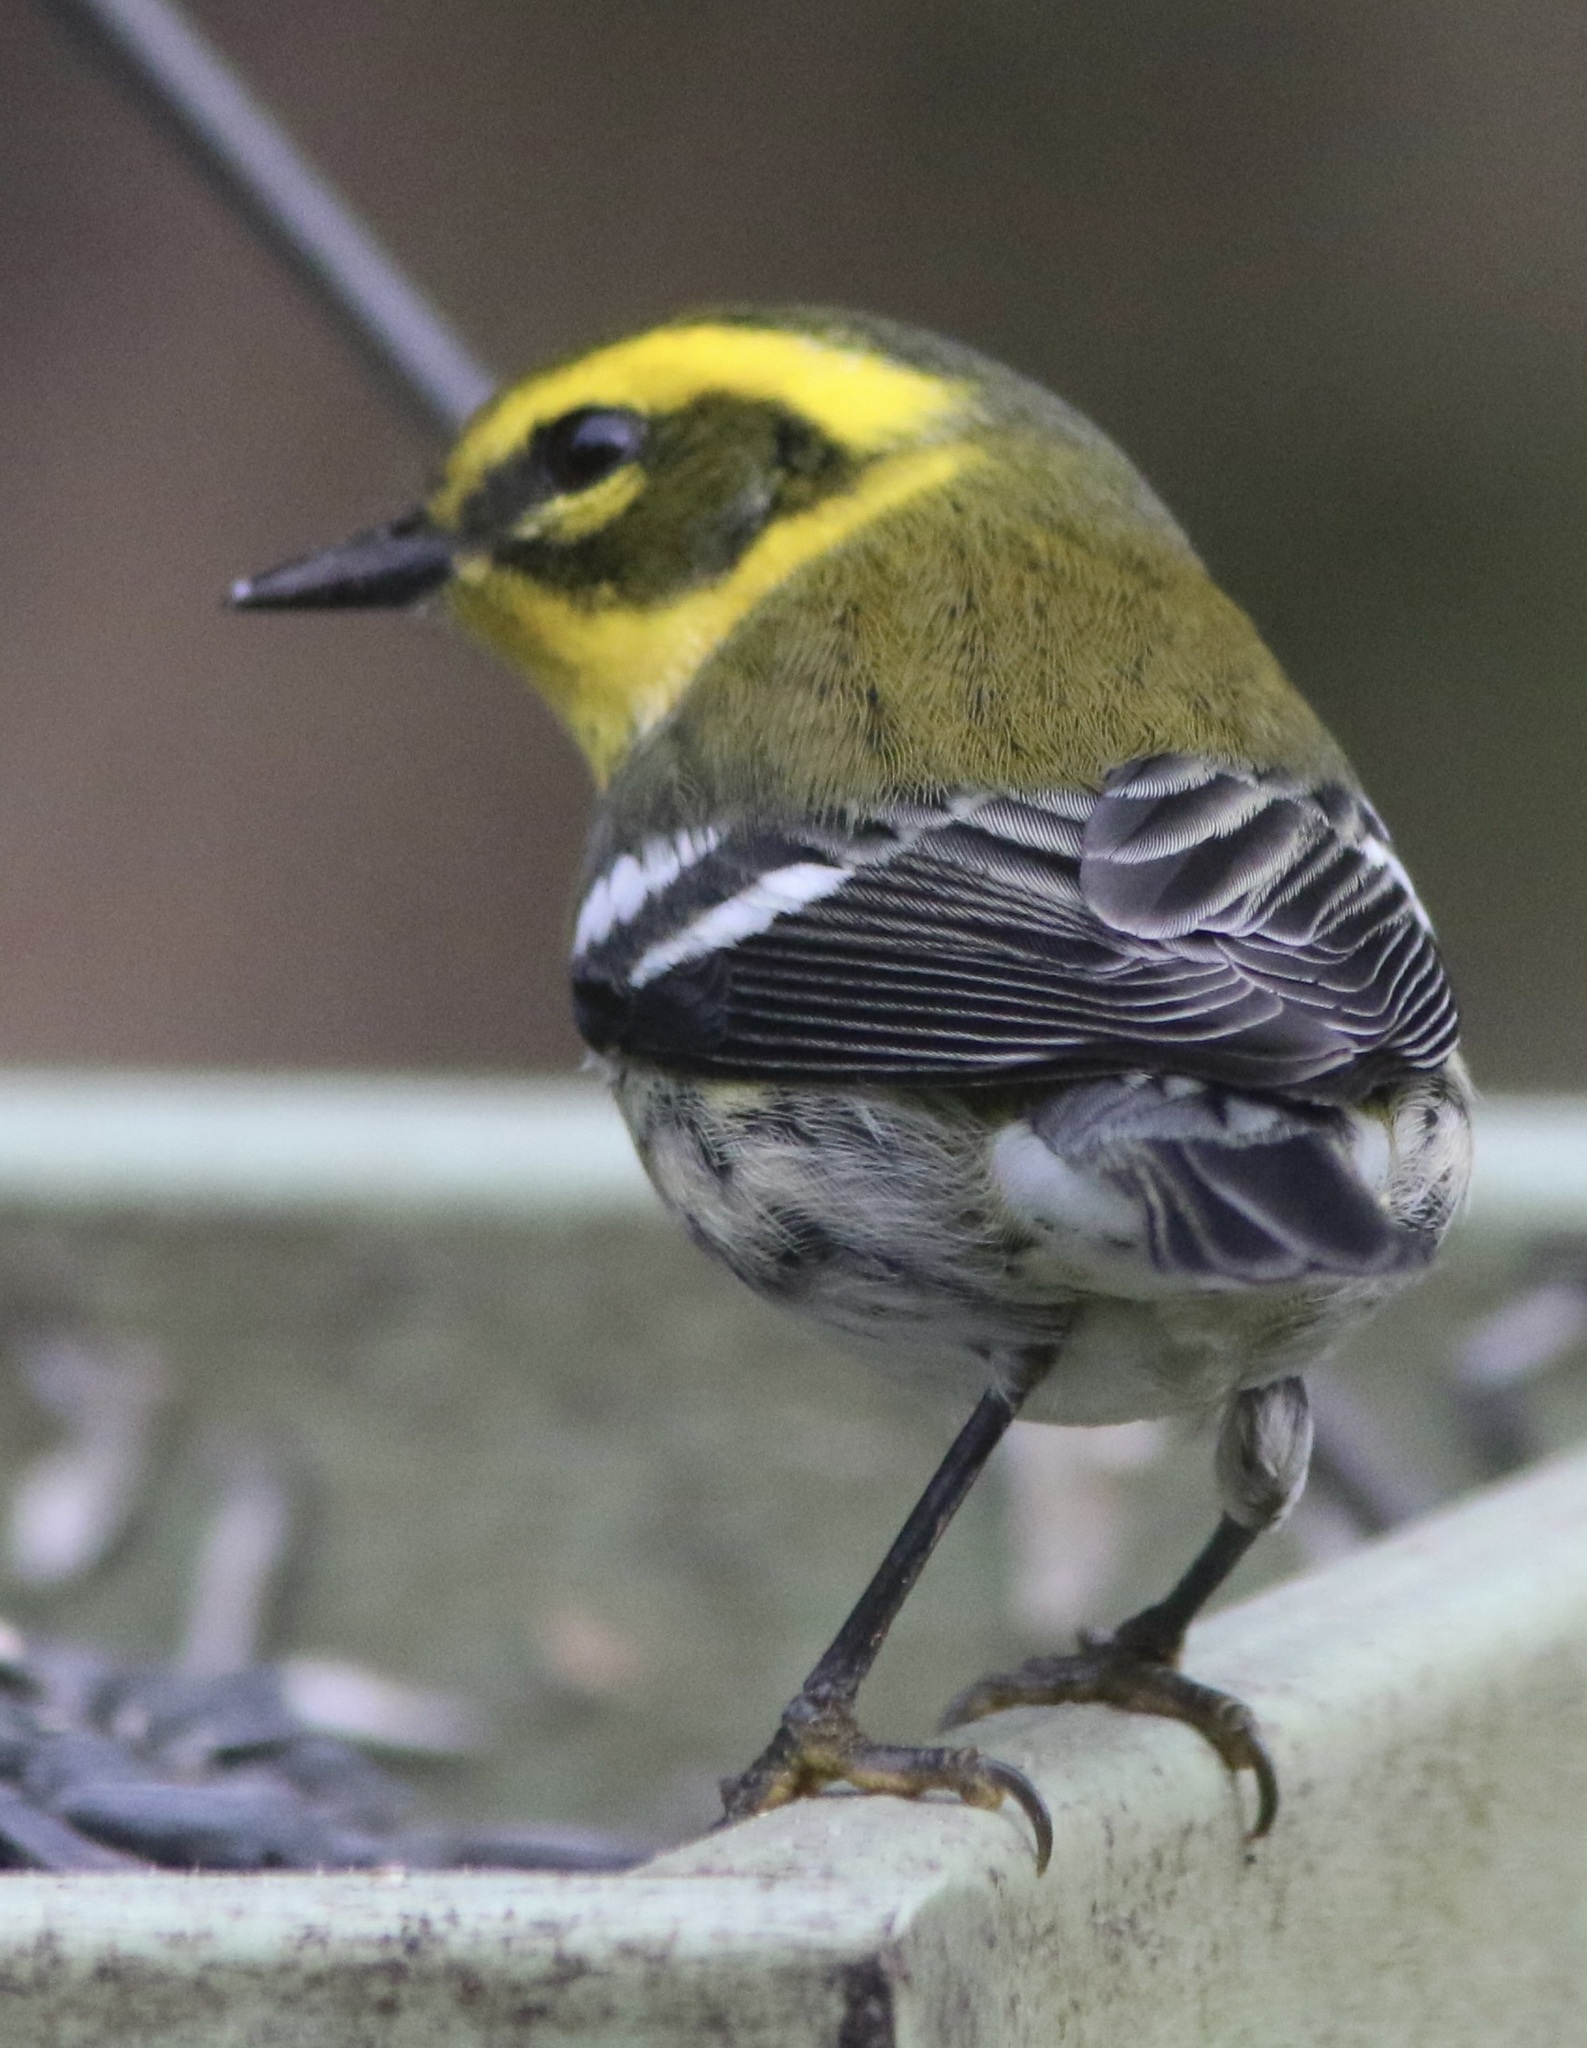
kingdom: Animalia
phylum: Chordata
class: Aves
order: Passeriformes
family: Parulidae
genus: Setophaga
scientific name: Setophaga townsendi
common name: Townsend's warbler
